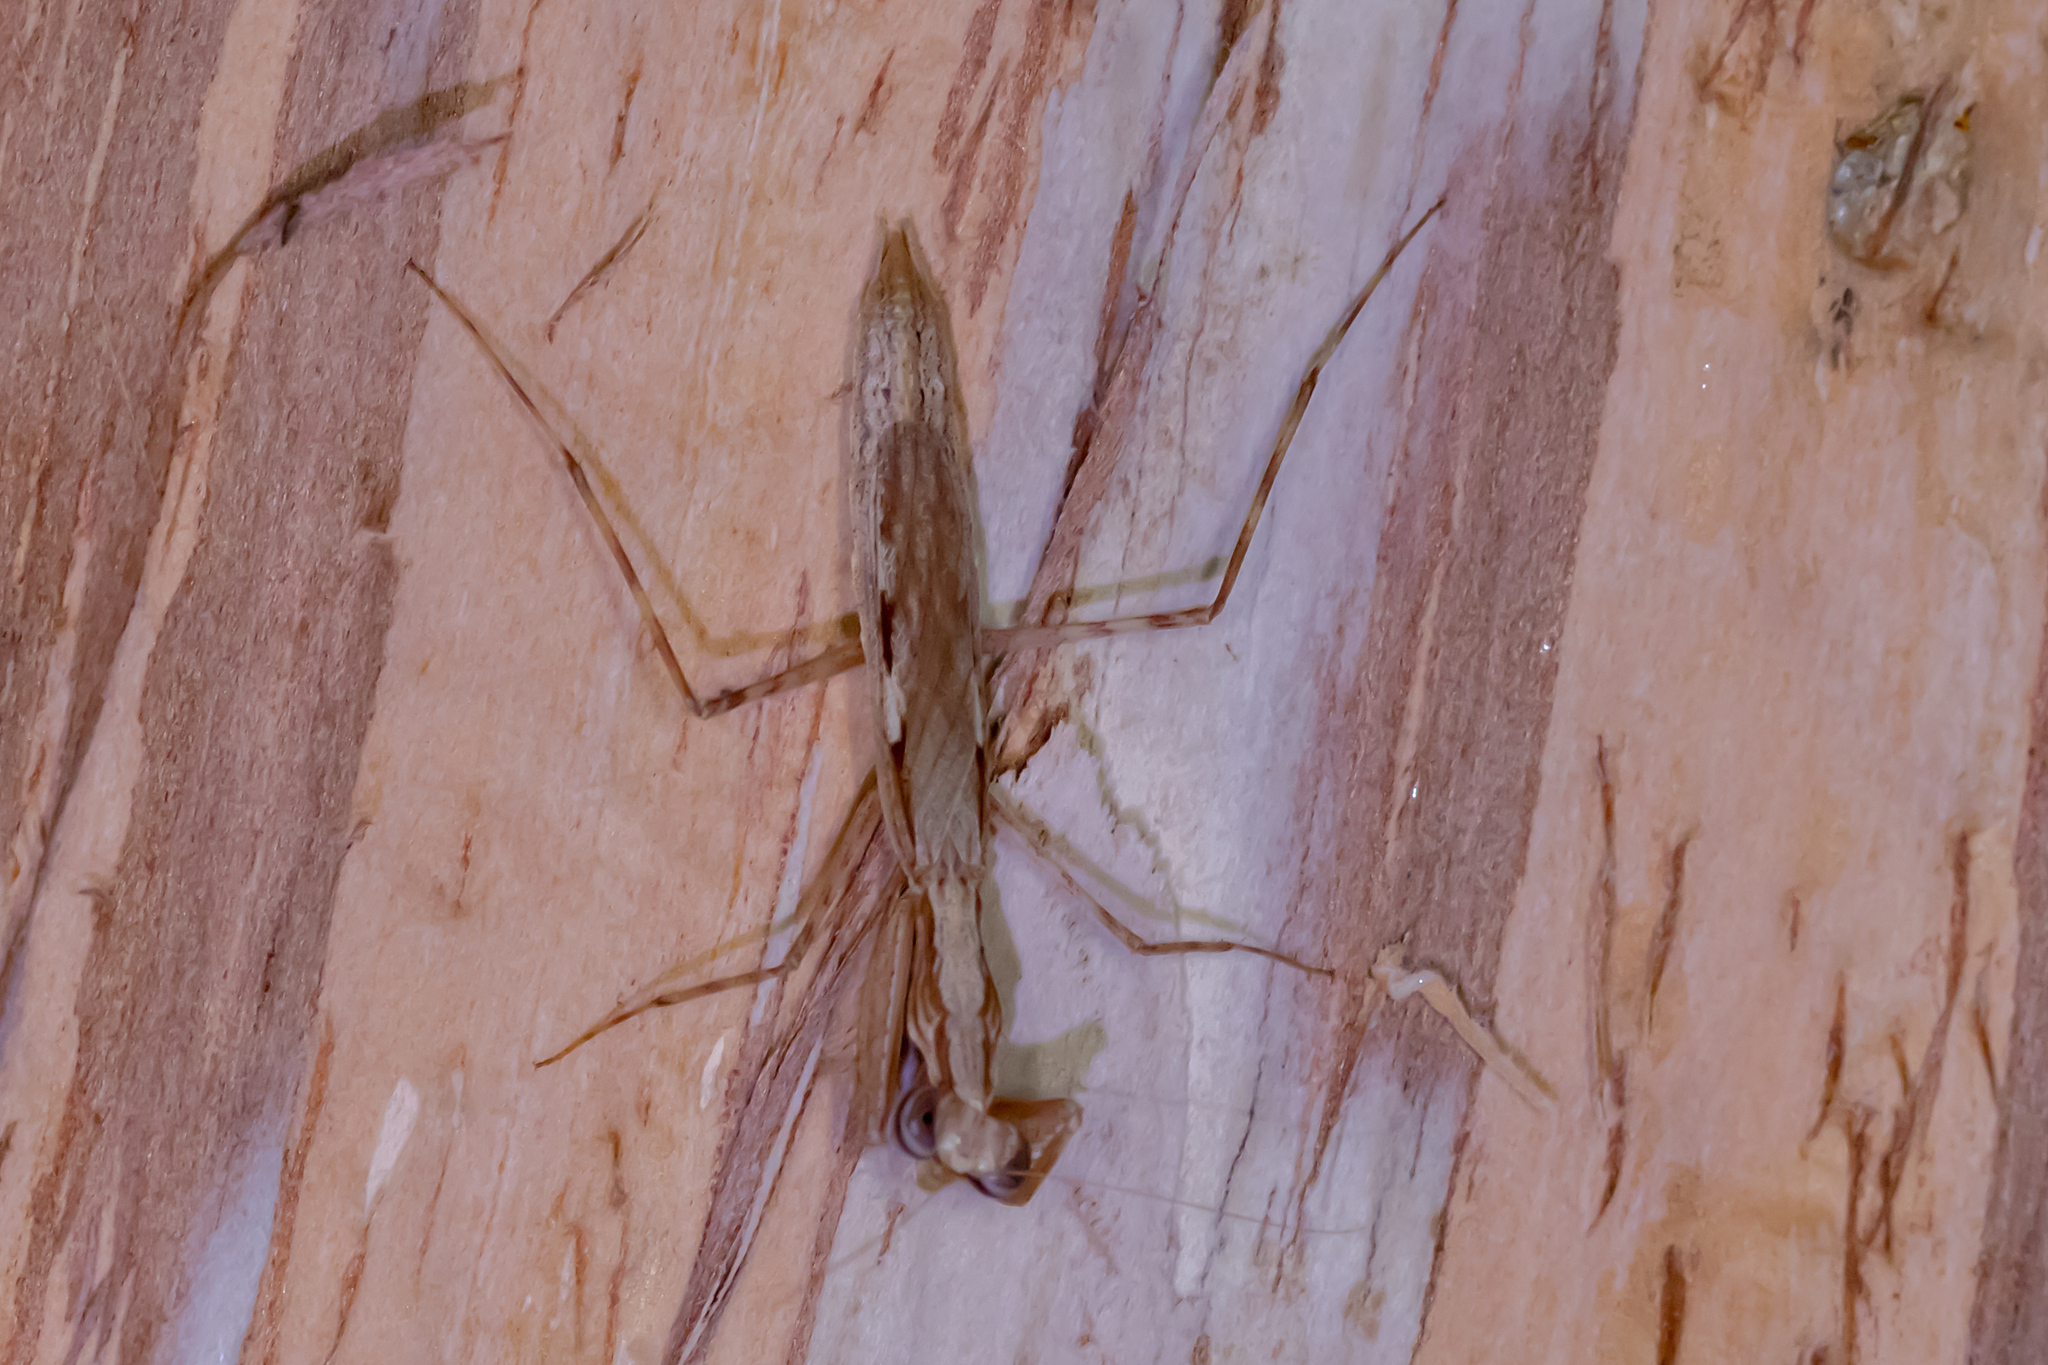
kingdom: Animalia
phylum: Arthropoda
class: Insecta
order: Mantodea
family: Nanomantidae
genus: Ima
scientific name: Ima fusca
